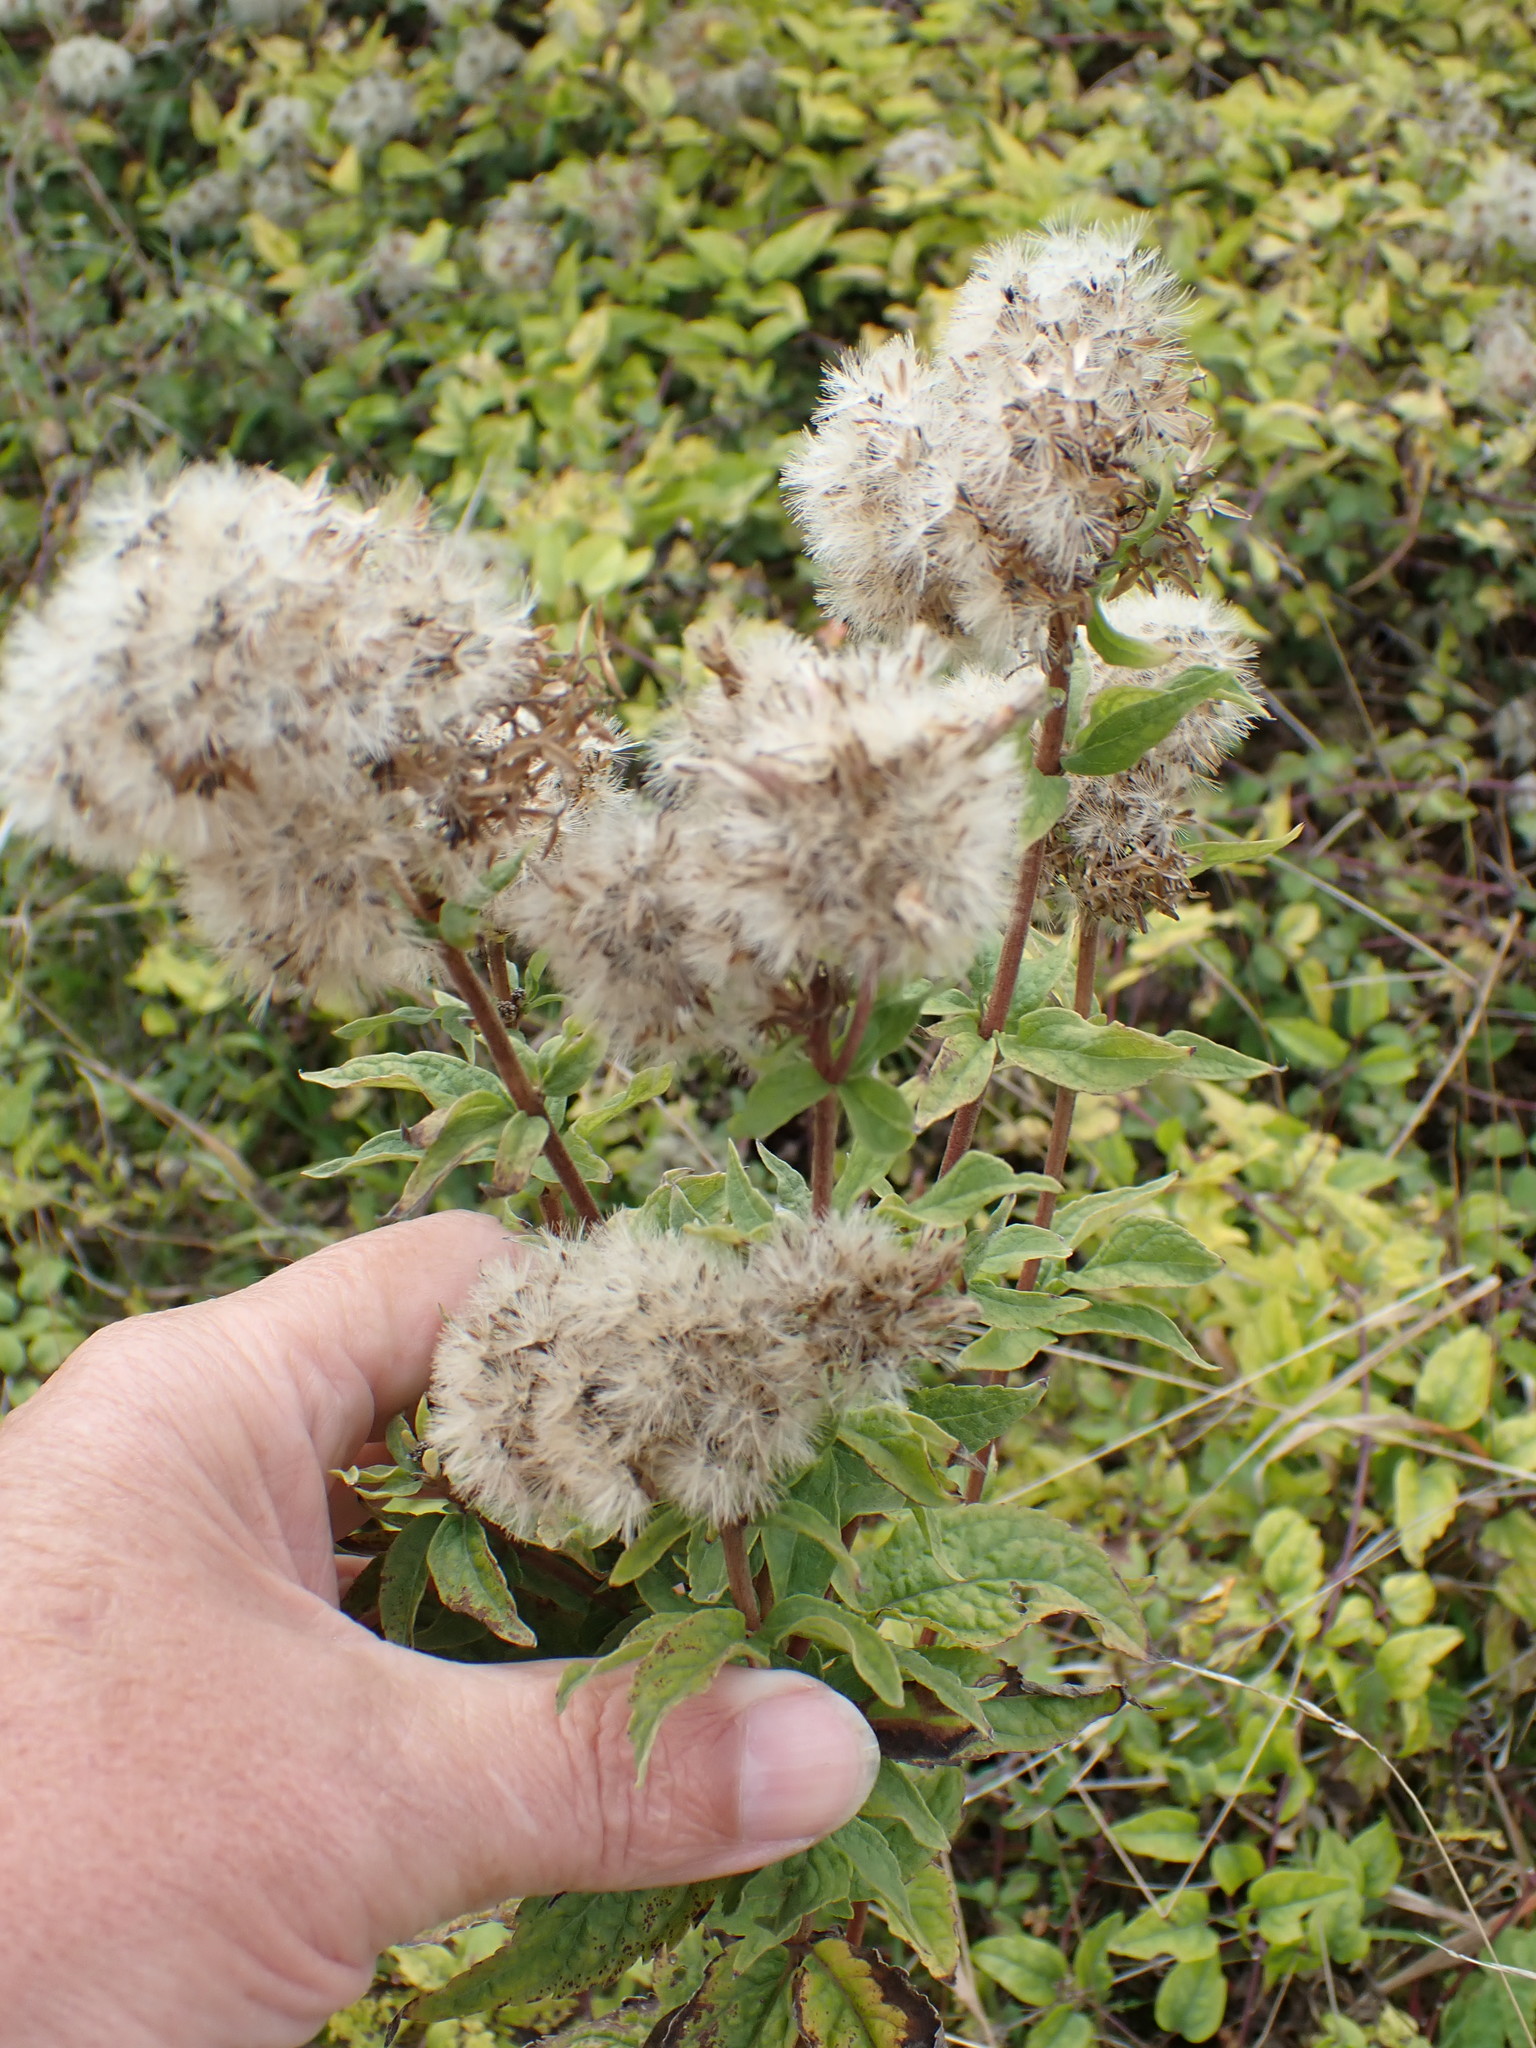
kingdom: Plantae
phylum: Tracheophyta
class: Magnoliopsida
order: Asterales
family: Asteraceae
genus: Eupatorium
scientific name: Eupatorium cannabinum
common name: Hemp-agrimony
